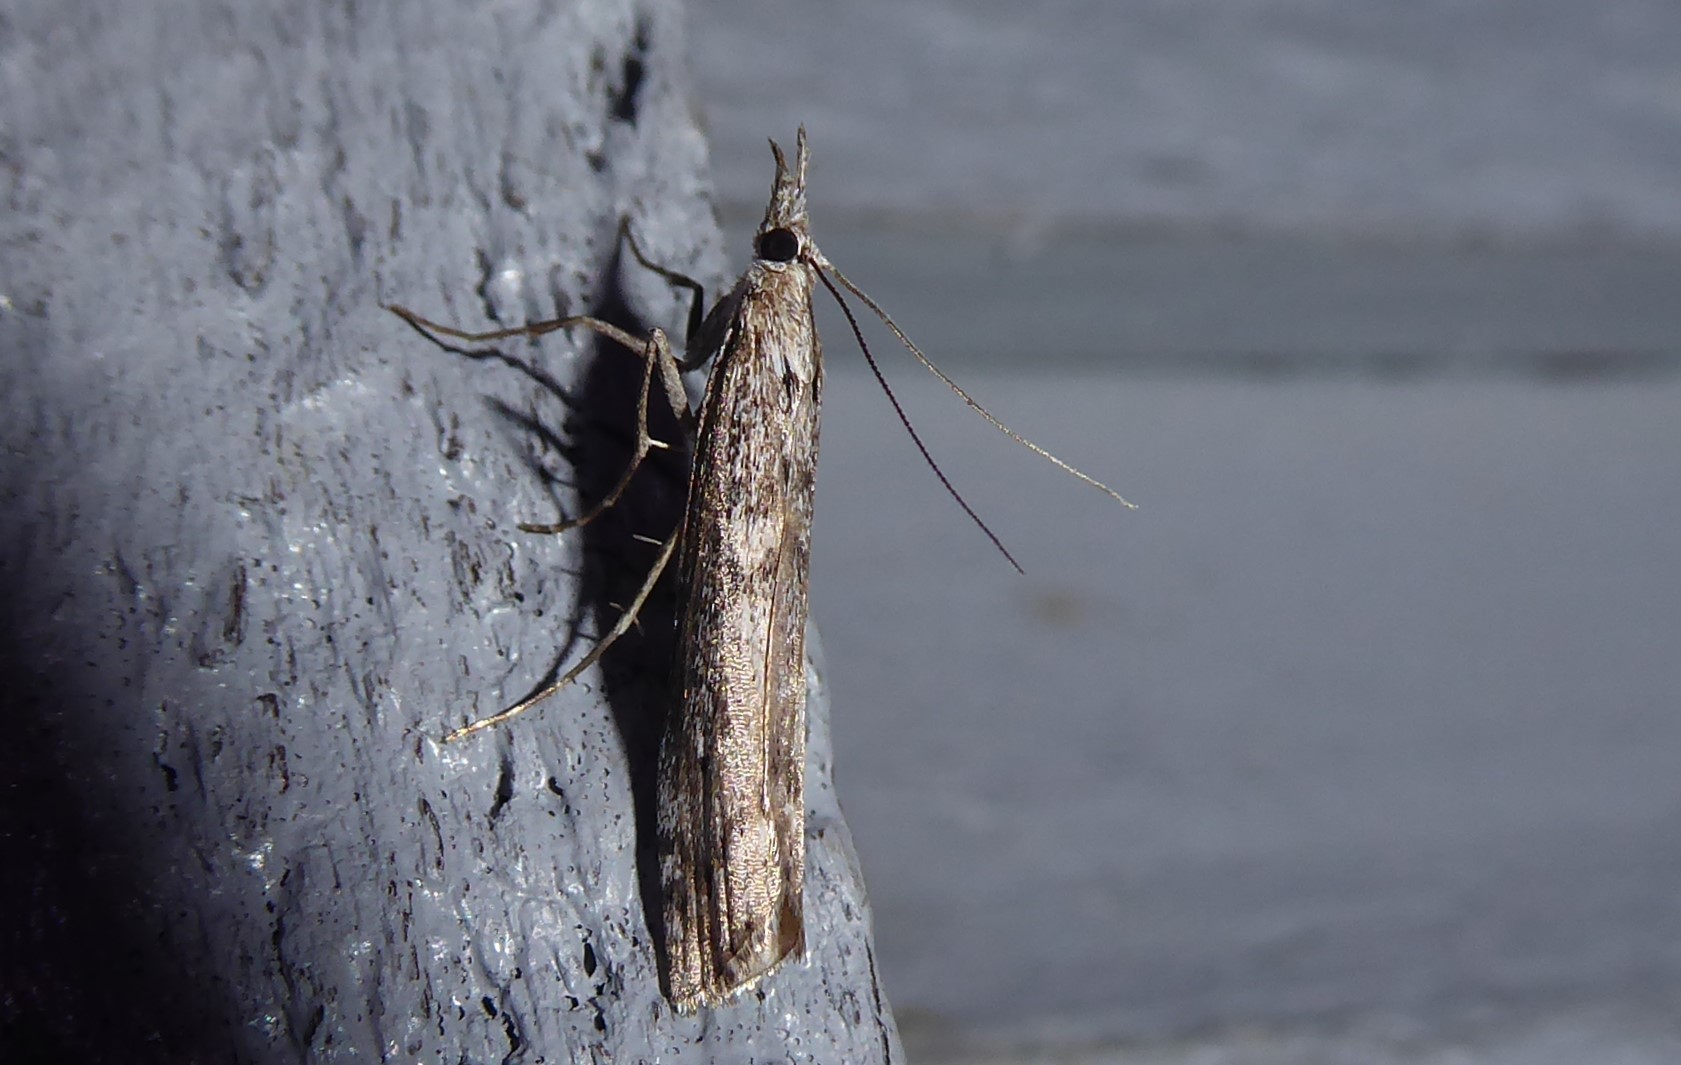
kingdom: Animalia
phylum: Arthropoda
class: Insecta
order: Lepidoptera
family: Crambidae
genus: Orocrambus
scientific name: Orocrambus cyclopicus
